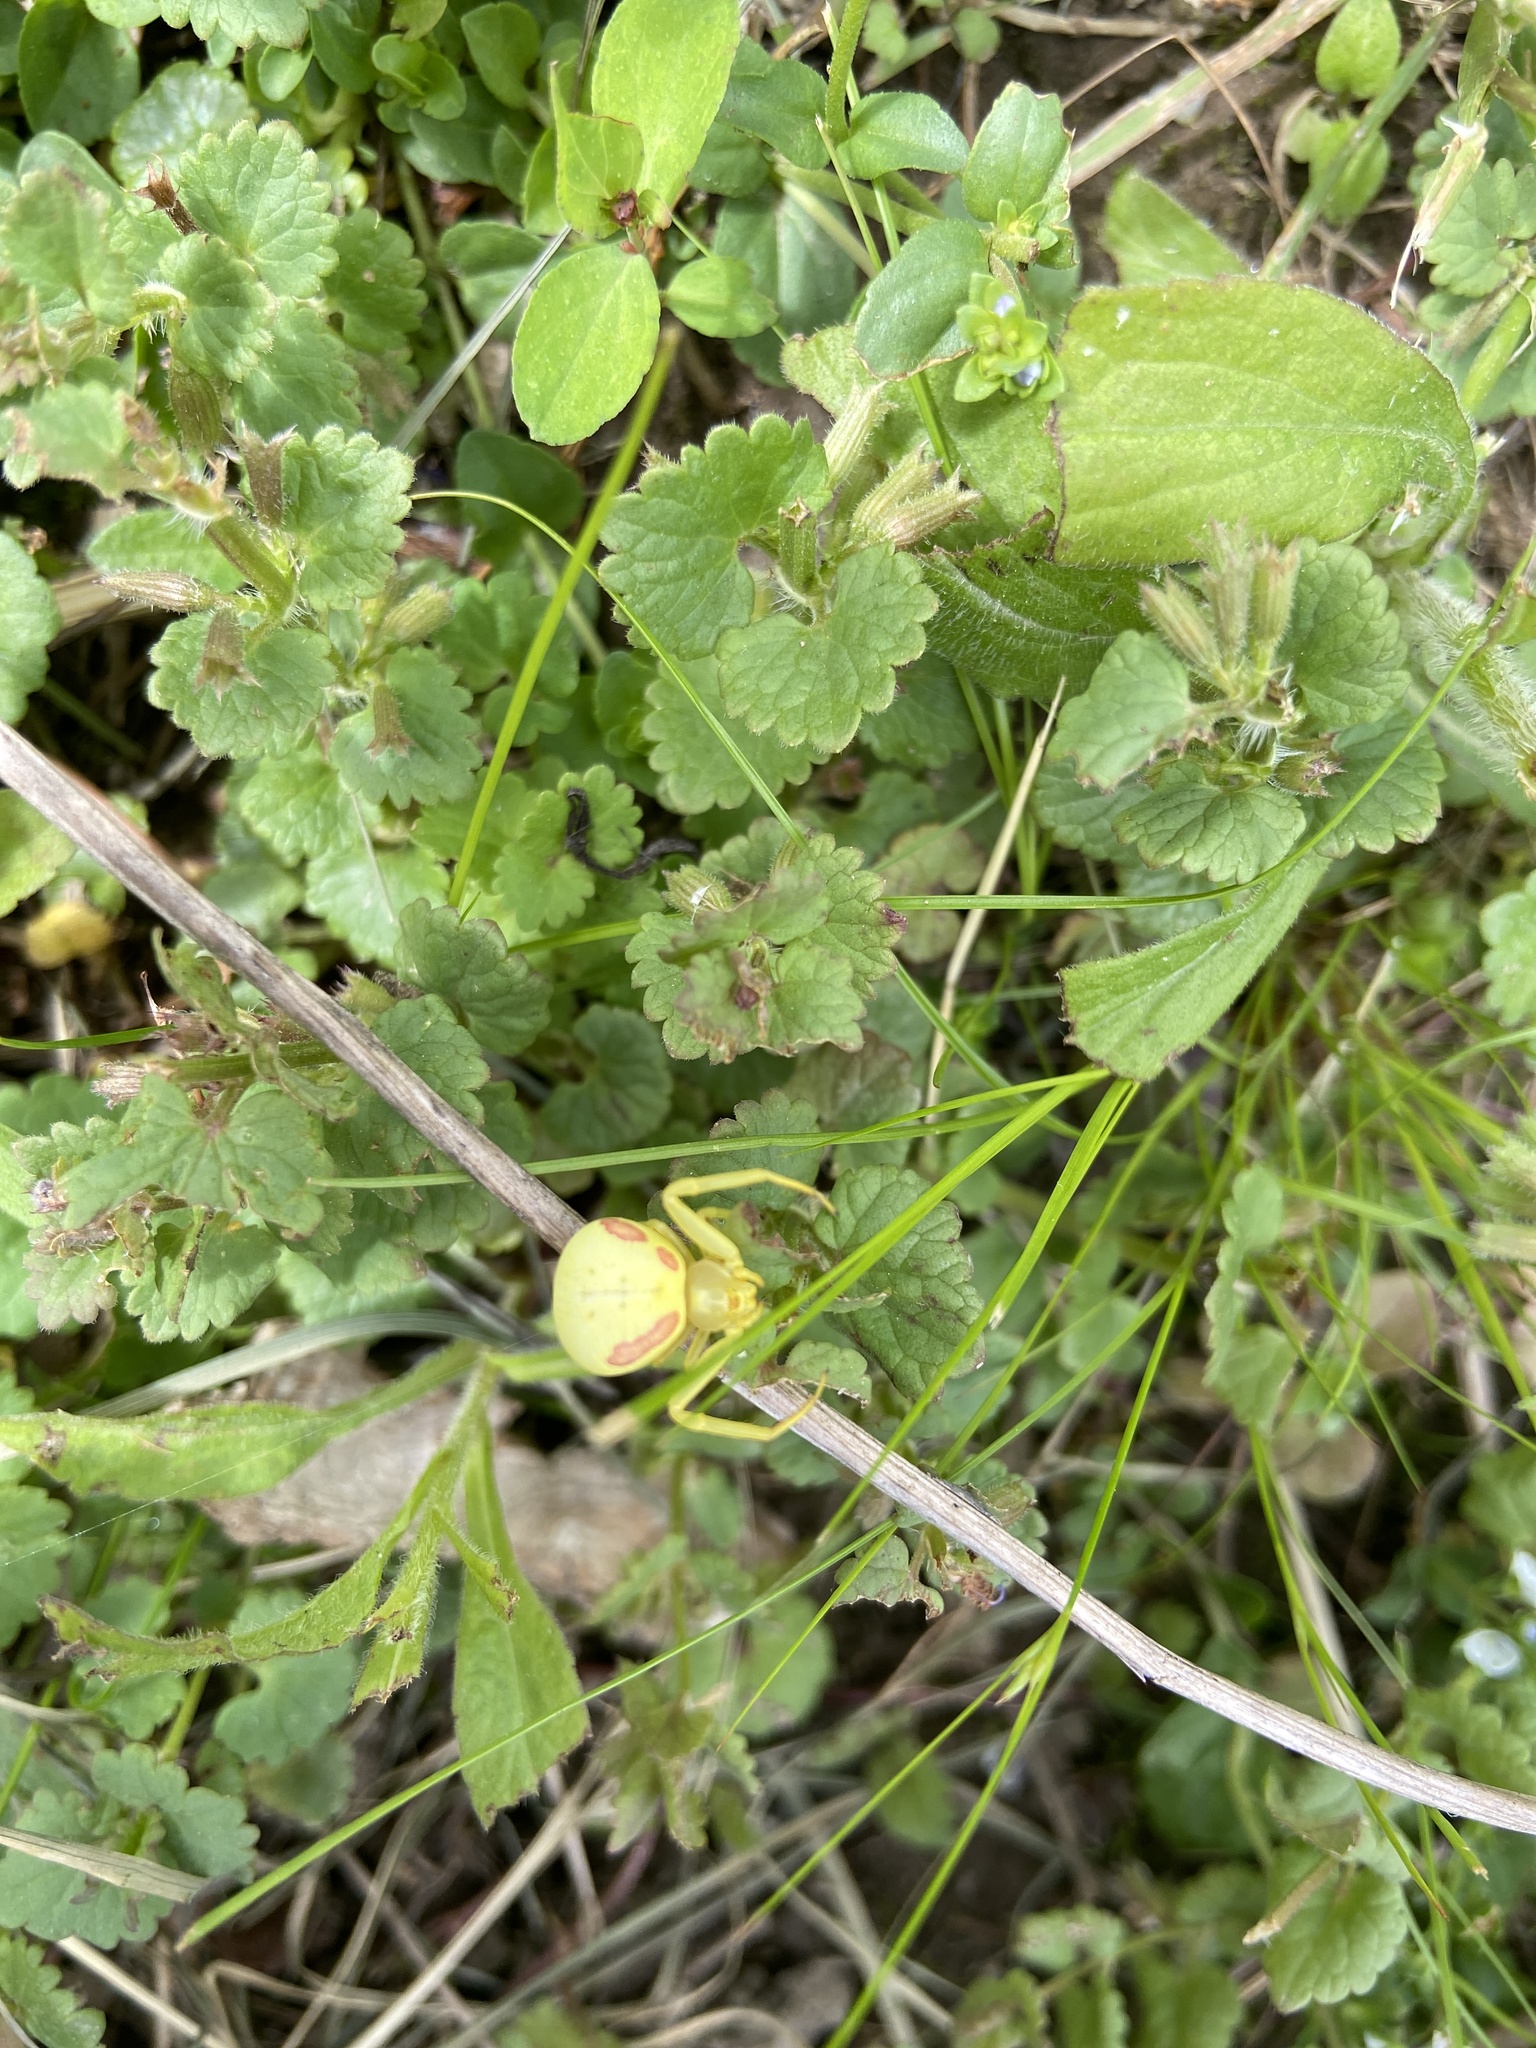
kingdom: Animalia
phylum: Arthropoda
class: Arachnida
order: Araneae
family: Thomisidae
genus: Misumena
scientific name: Misumena vatia
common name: Goldenrod crab spider
